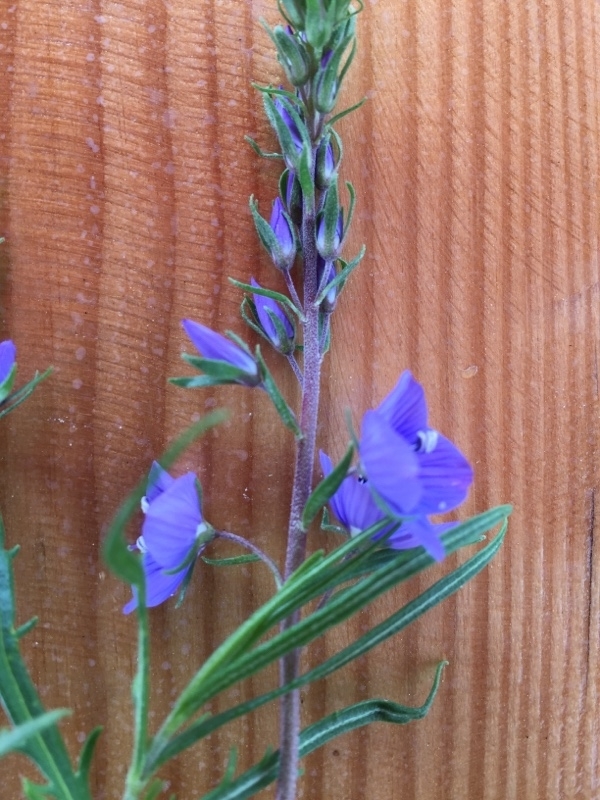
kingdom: Plantae
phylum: Tracheophyta
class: Magnoliopsida
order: Lamiales
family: Plantaginaceae
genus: Veronica
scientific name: Veronica multifida
